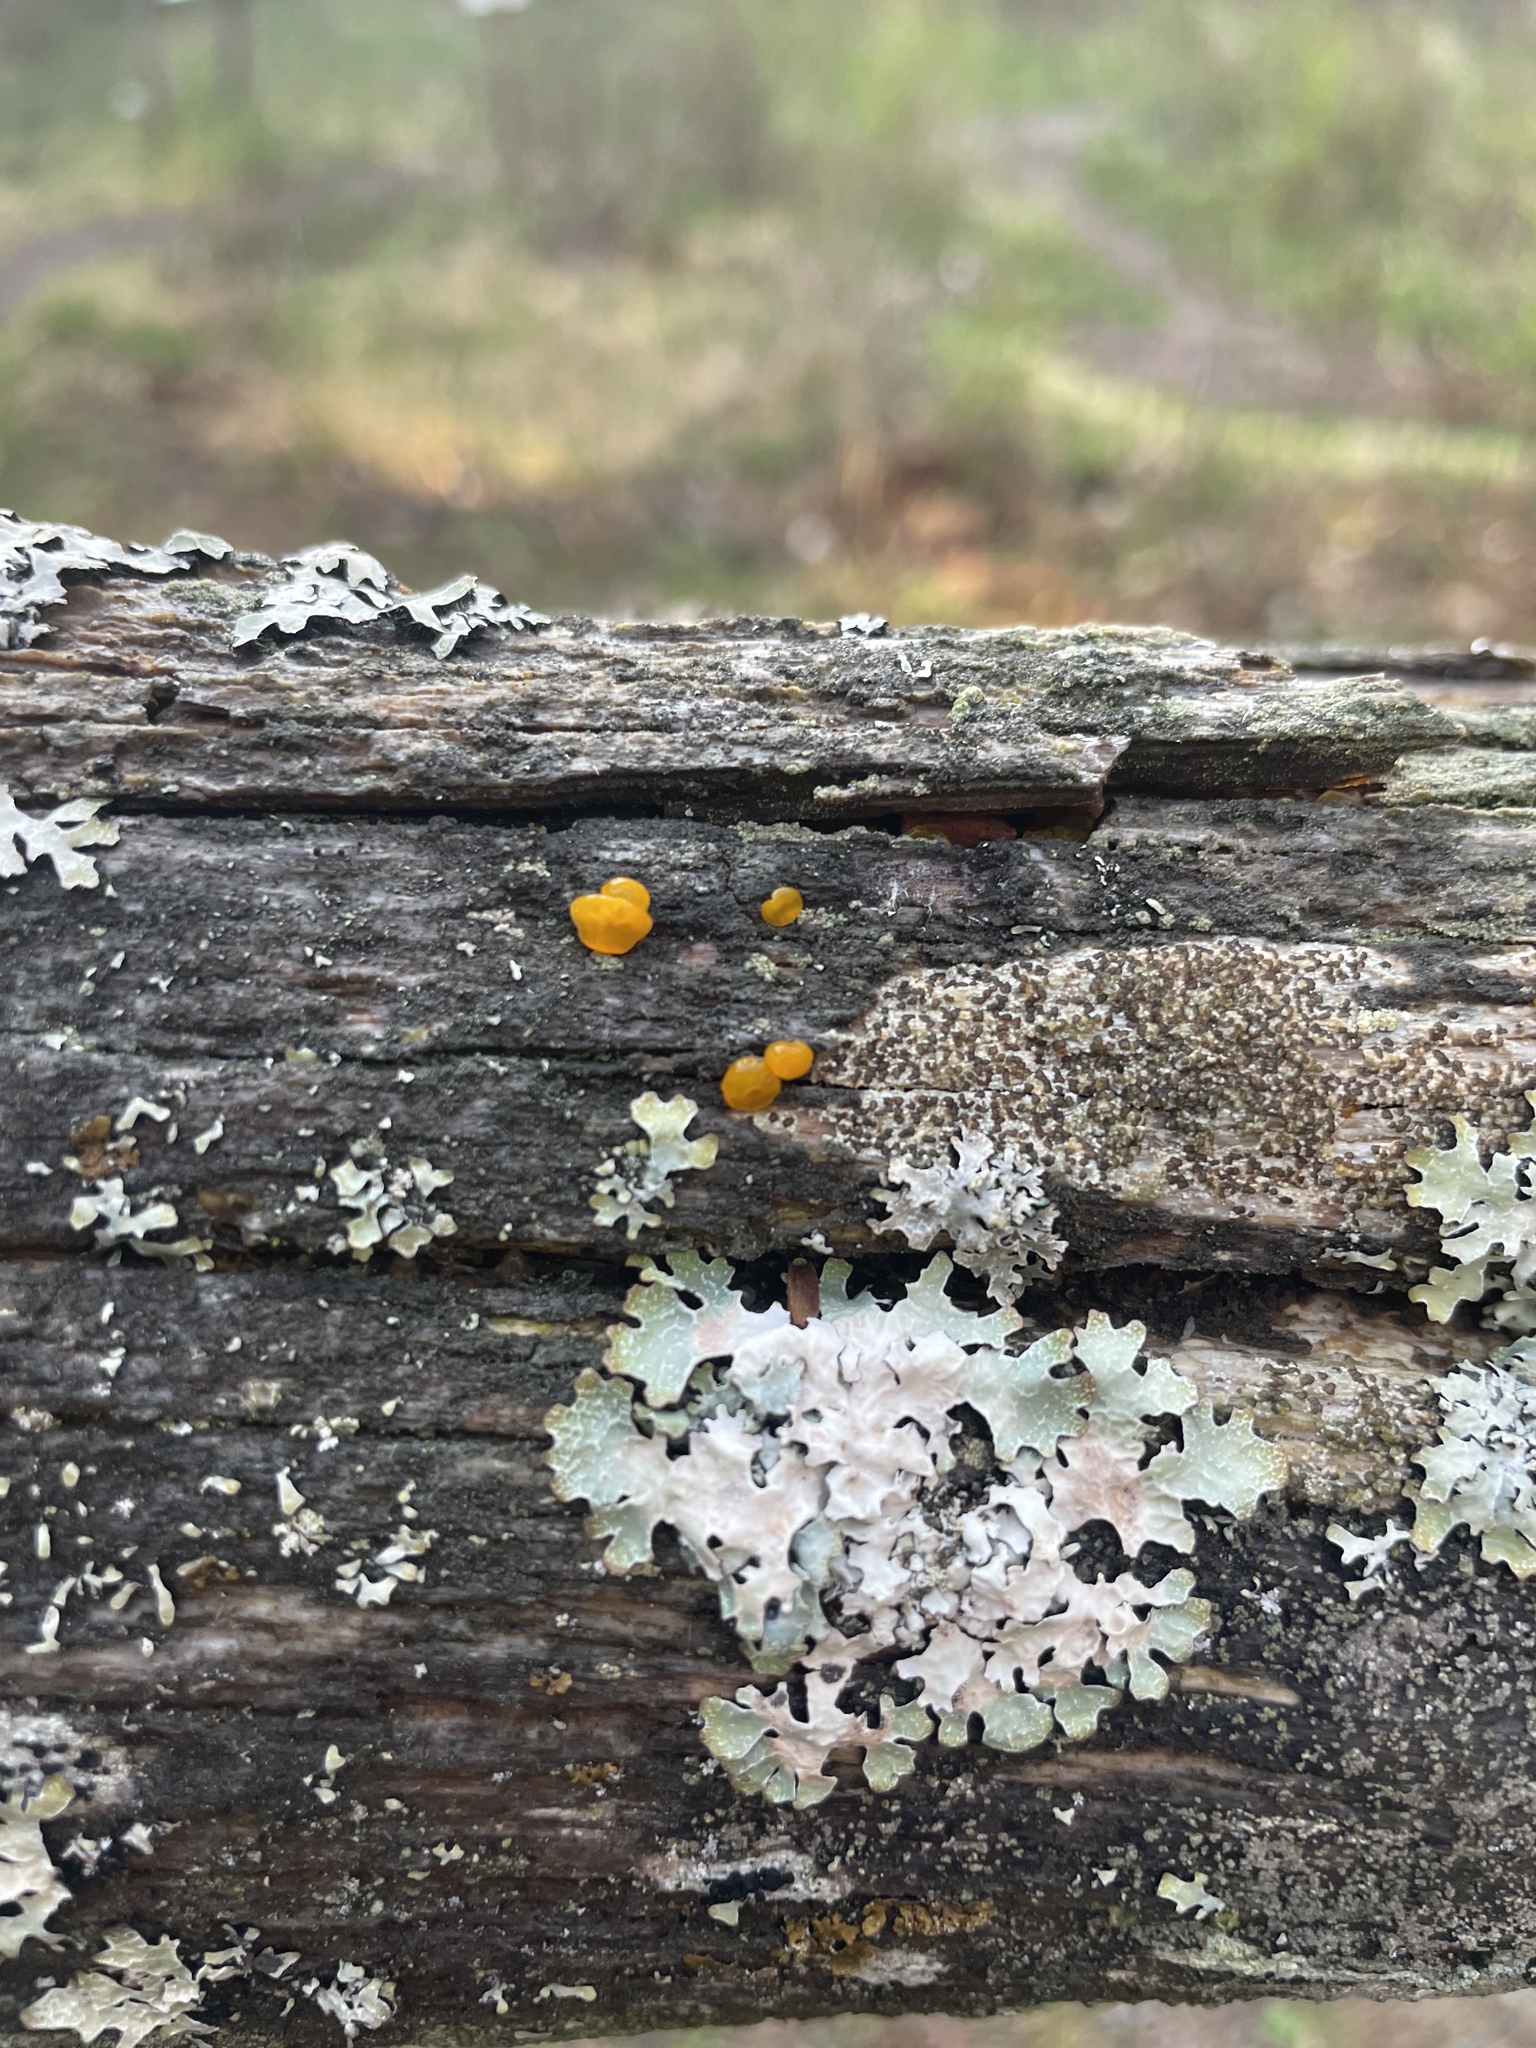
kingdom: Fungi
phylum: Basidiomycota
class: Dacrymycetes
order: Dacrymycetales
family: Dacrymycetaceae
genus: Dacrymyces
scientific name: Dacrymyces chrysospermus
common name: Orange jelly spot
